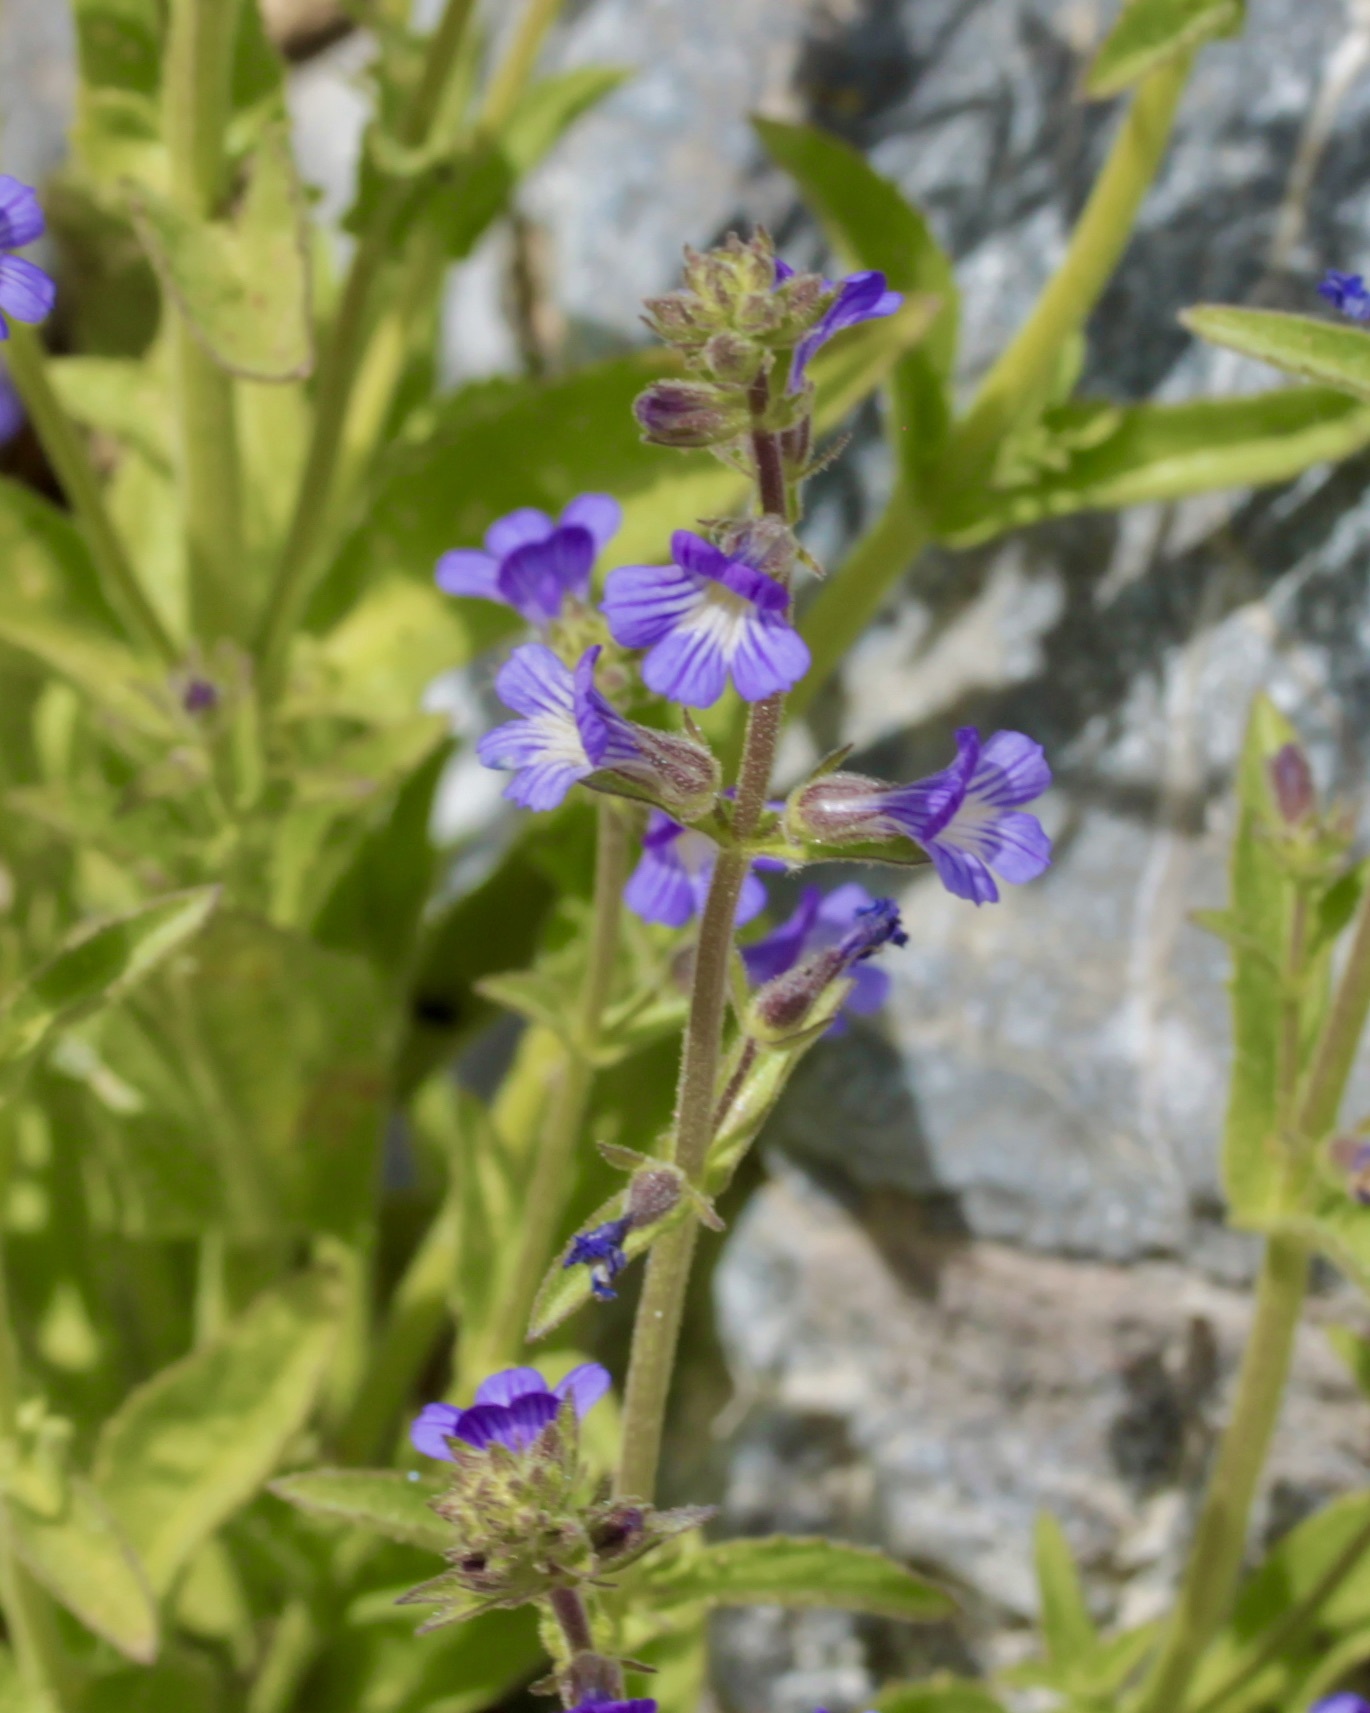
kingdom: Plantae
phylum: Tracheophyta
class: Magnoliopsida
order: Lamiales
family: Plantaginaceae
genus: Stemodia
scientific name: Stemodia durantifolia
